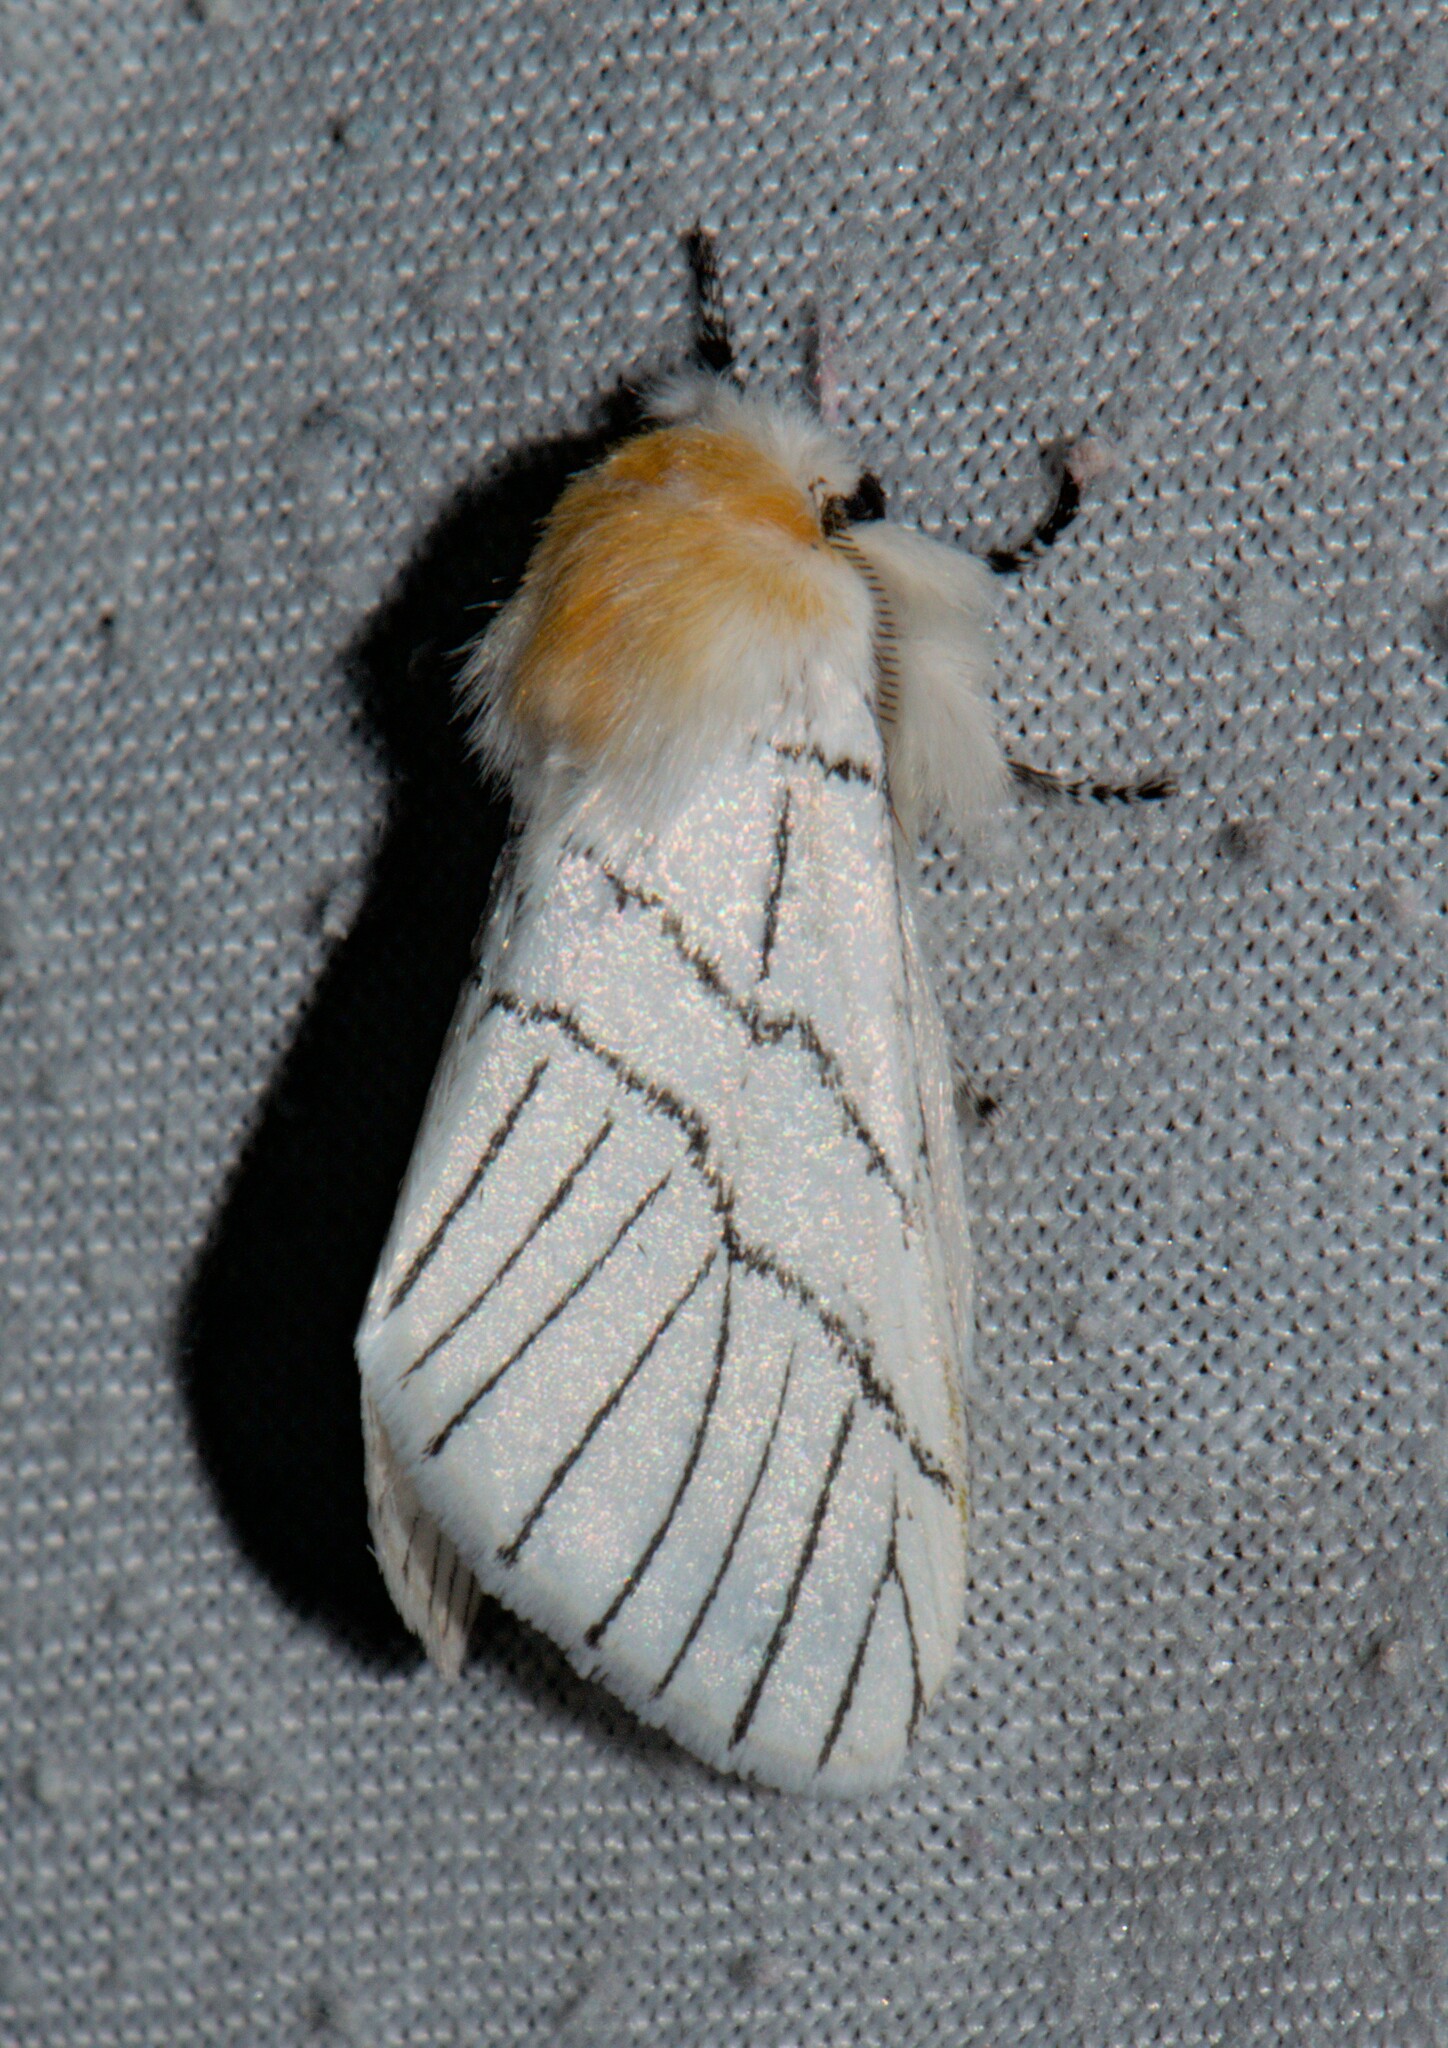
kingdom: Animalia
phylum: Arthropoda
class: Insecta
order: Lepidoptera
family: Notodontidae
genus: Oligoclona
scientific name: Oligoclona chrysolopha
